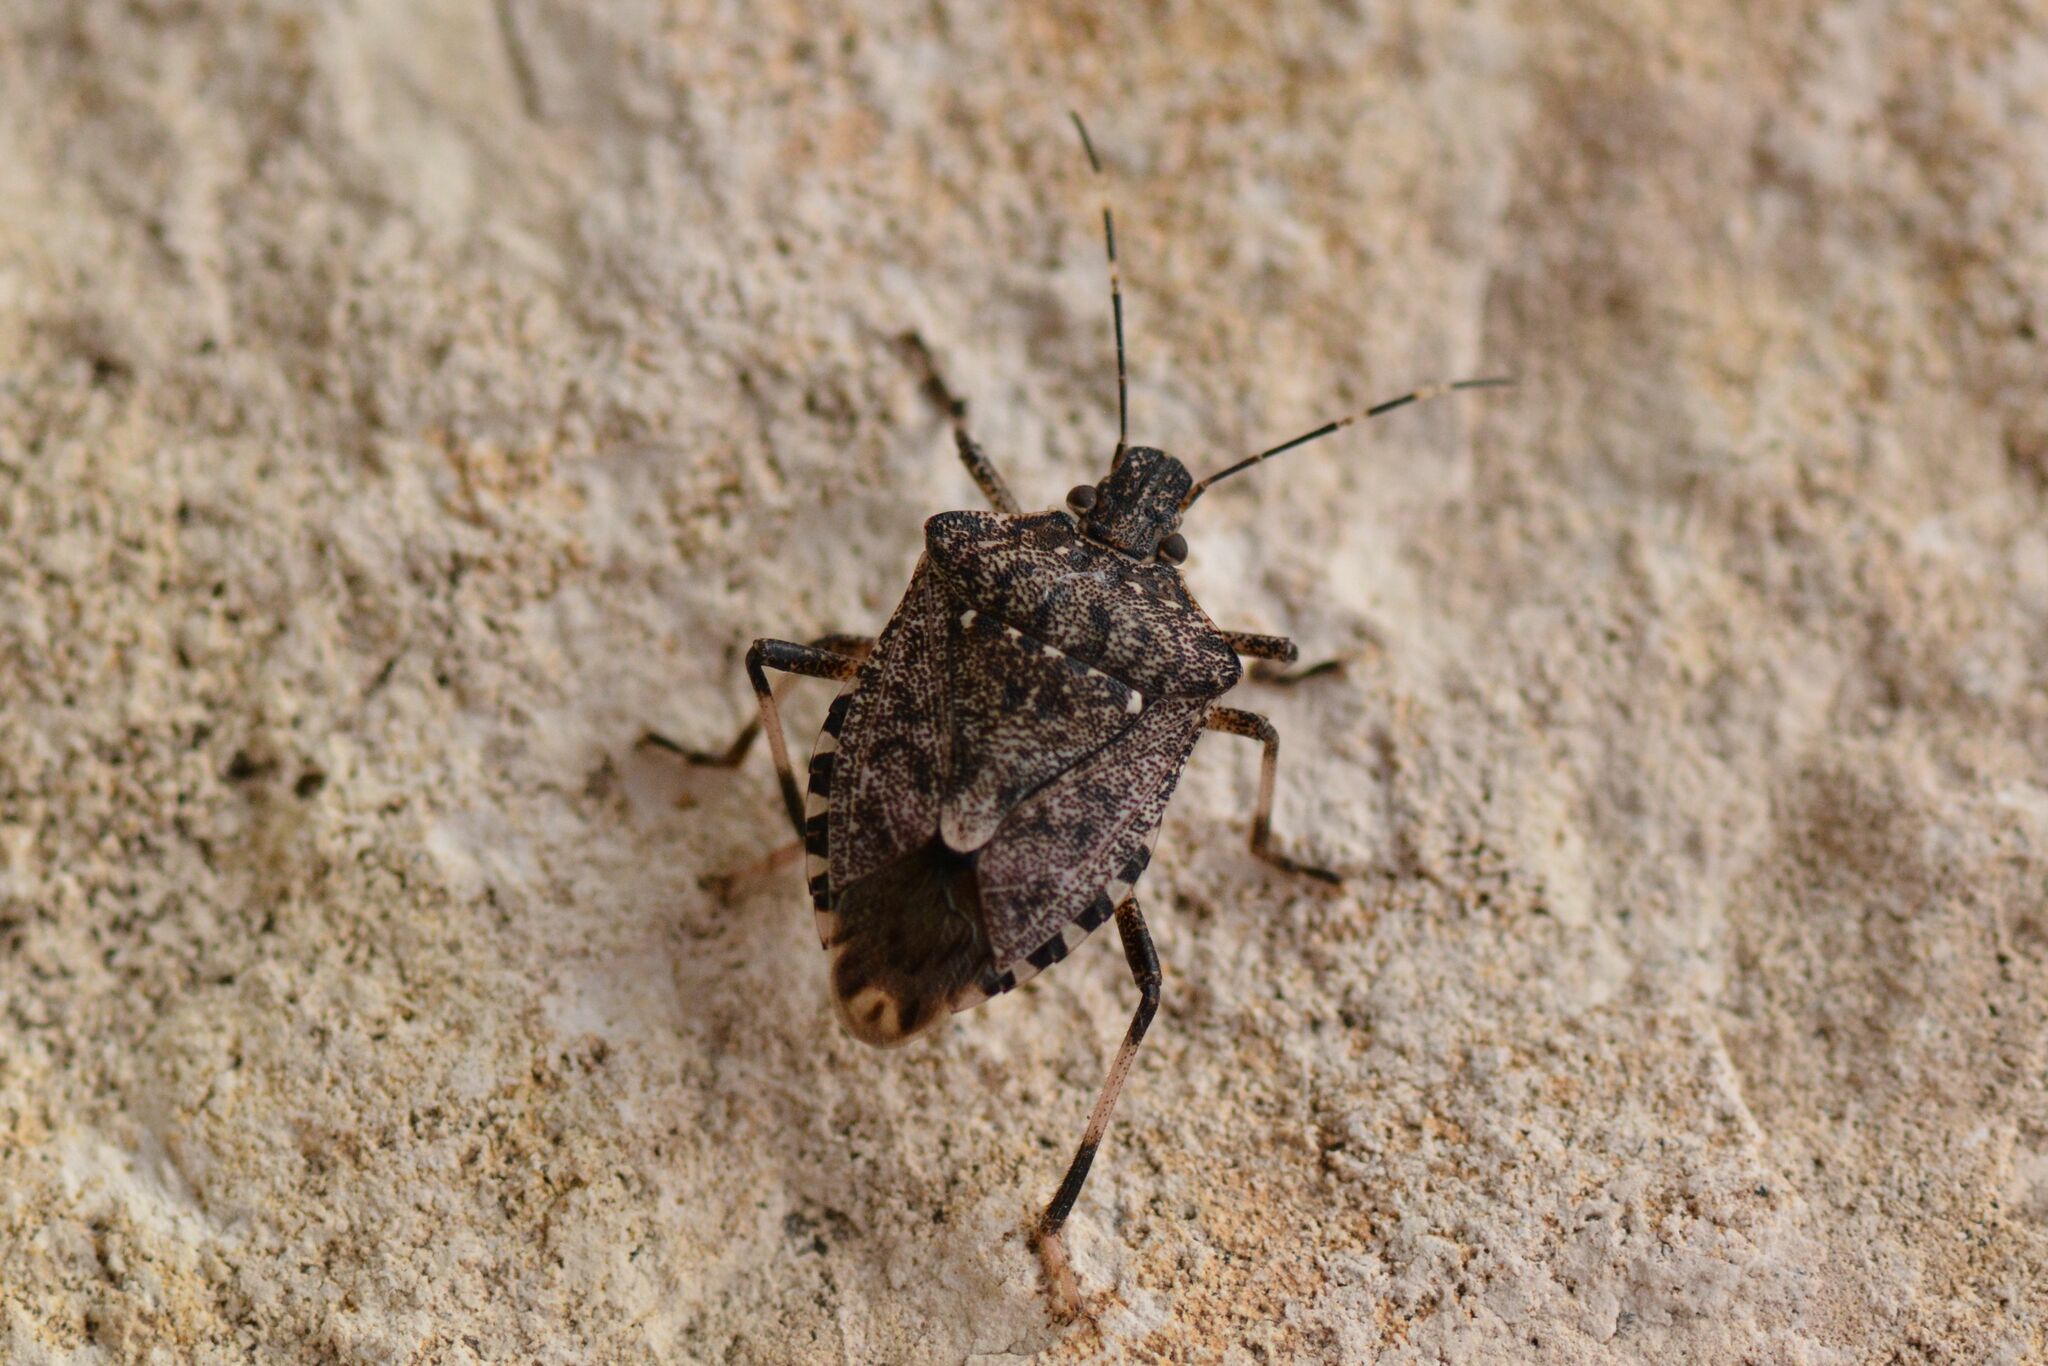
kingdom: Animalia
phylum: Arthropoda
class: Insecta
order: Hemiptera
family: Pentatomidae
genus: Halyomorpha
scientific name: Halyomorpha halys
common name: Brown marmorated stink bug
